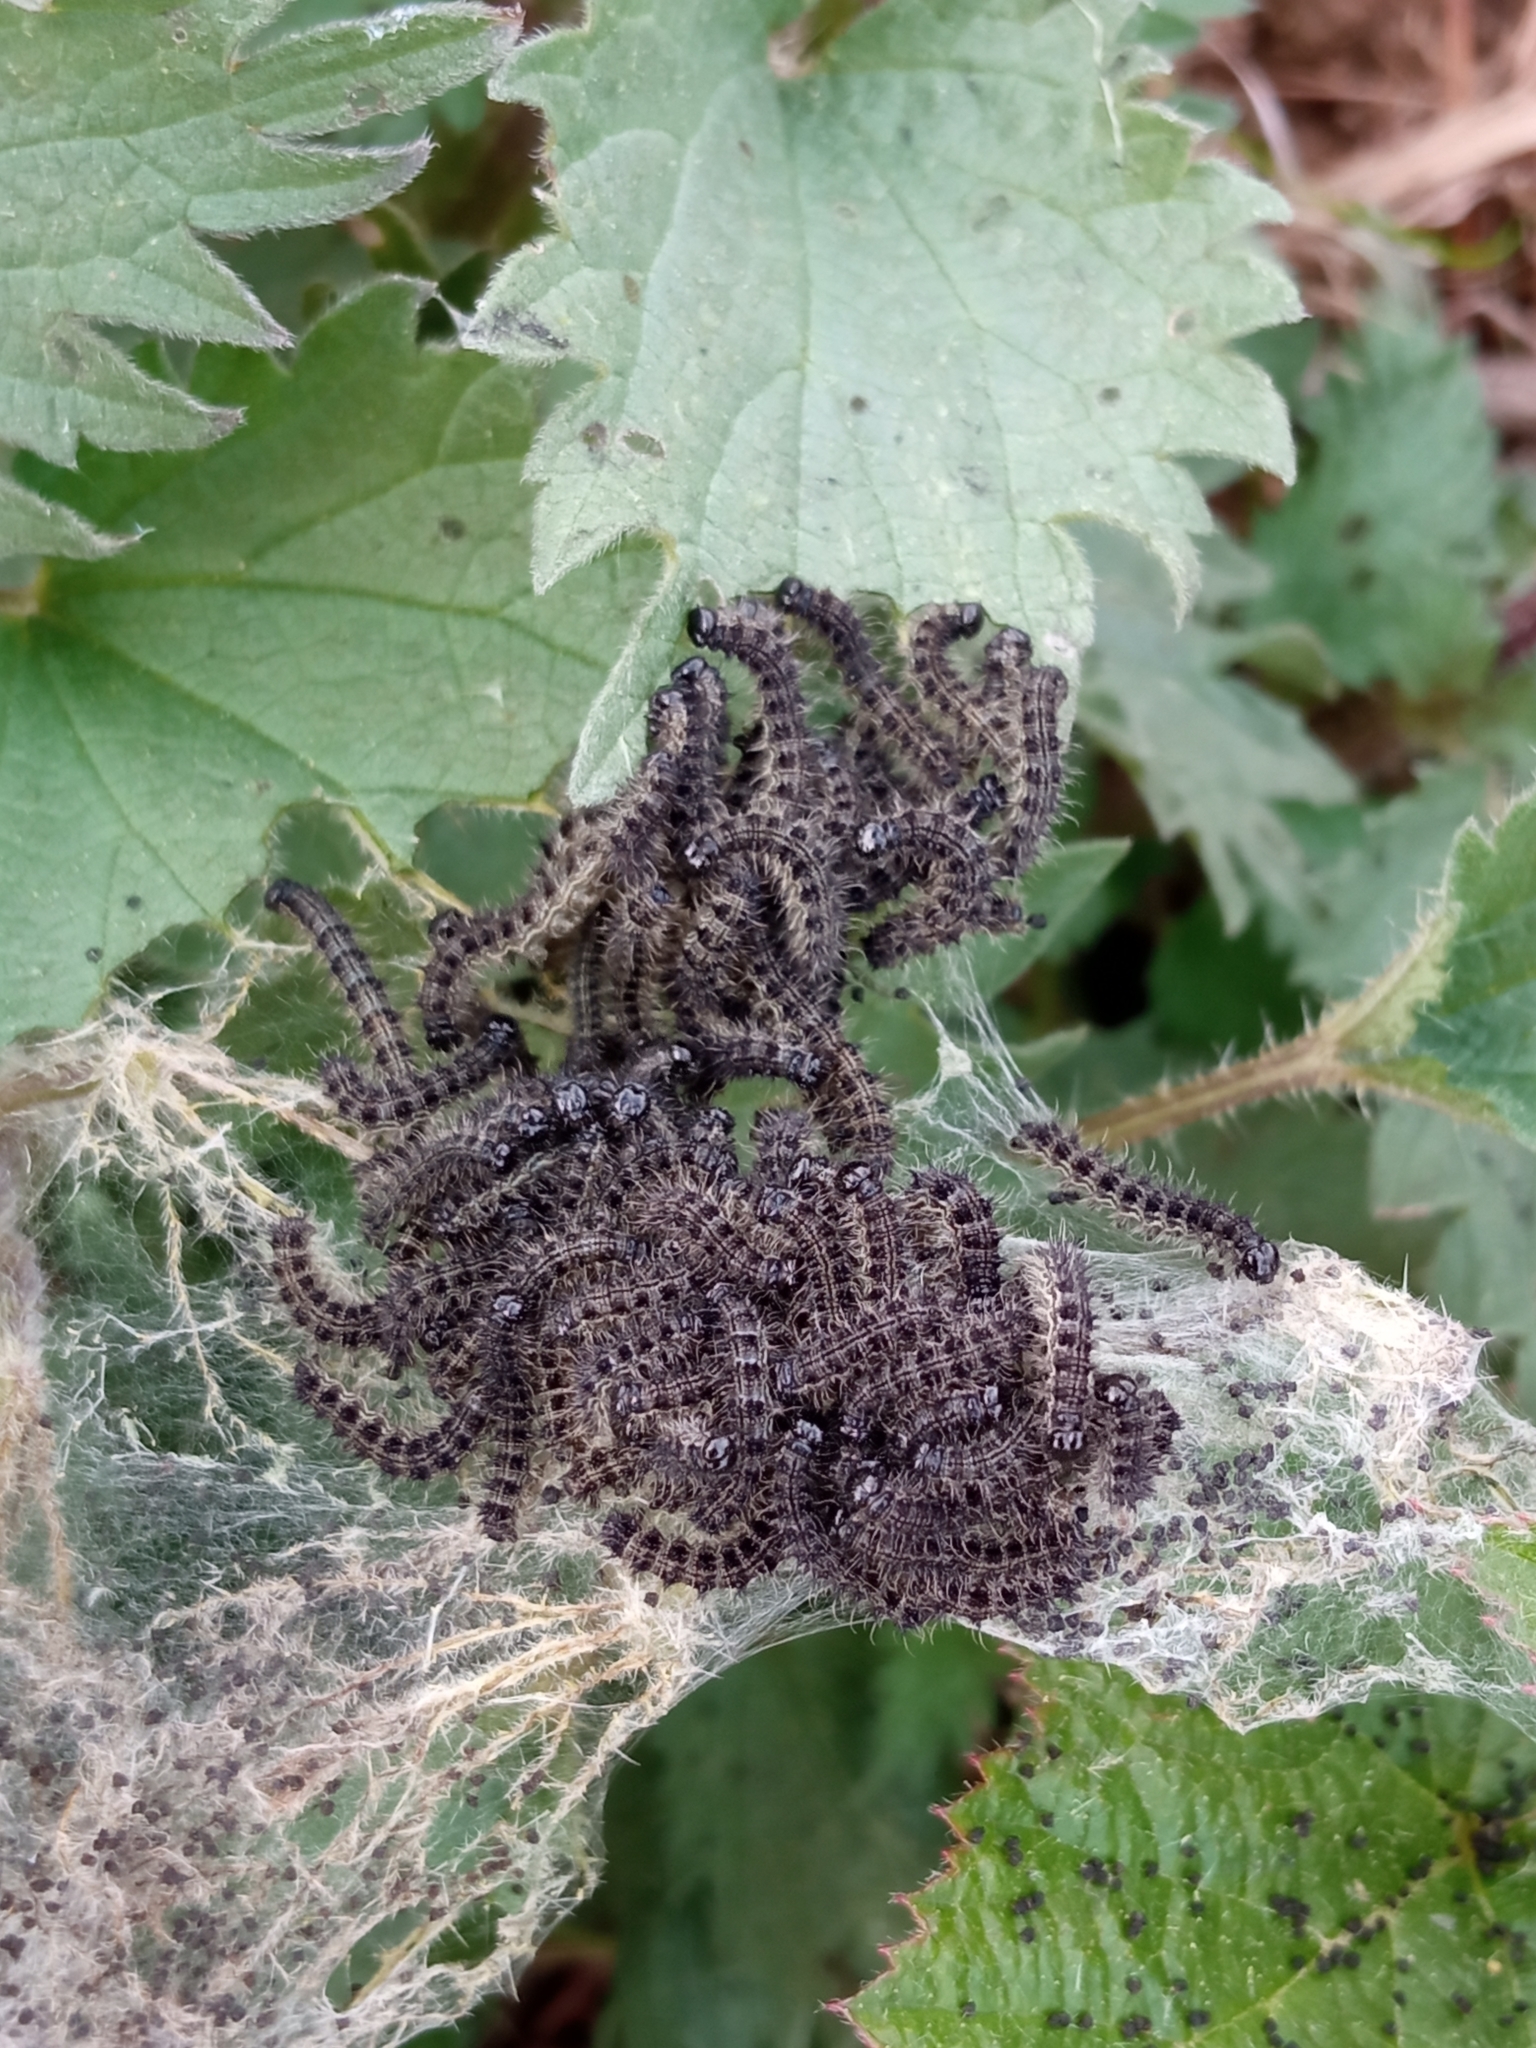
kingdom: Animalia
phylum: Arthropoda
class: Insecta
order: Lepidoptera
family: Nymphalidae
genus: Aglais
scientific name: Aglais urticae
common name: Small tortoiseshell
